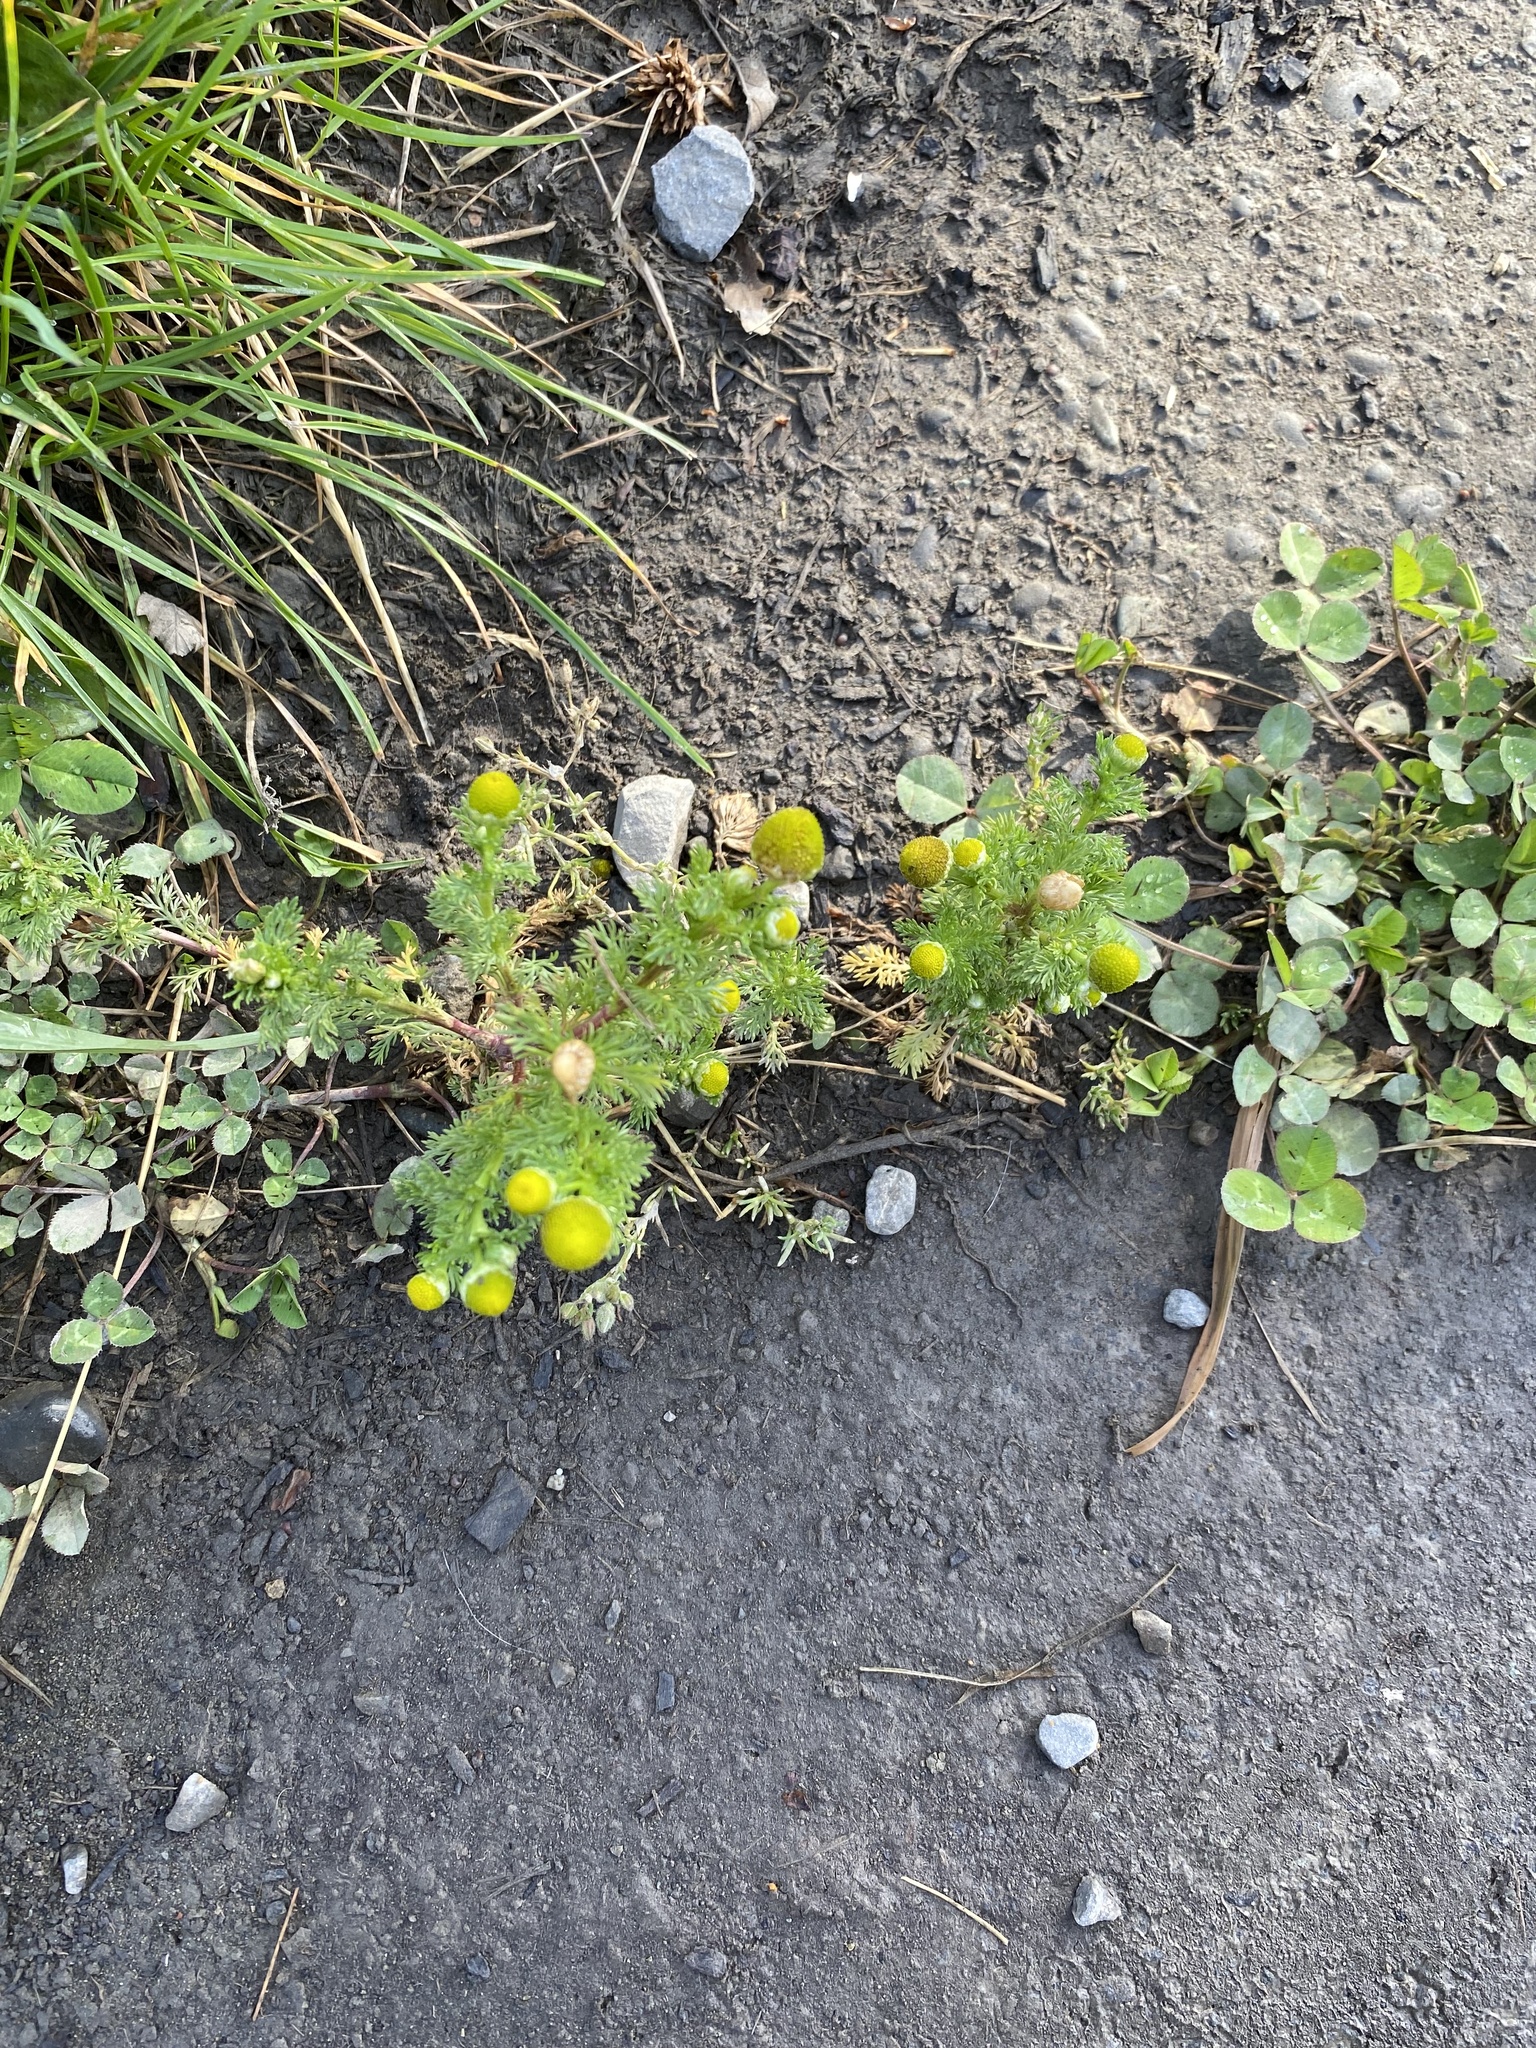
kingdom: Plantae
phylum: Tracheophyta
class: Magnoliopsida
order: Asterales
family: Asteraceae
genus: Matricaria
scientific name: Matricaria discoidea
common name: Disc mayweed
